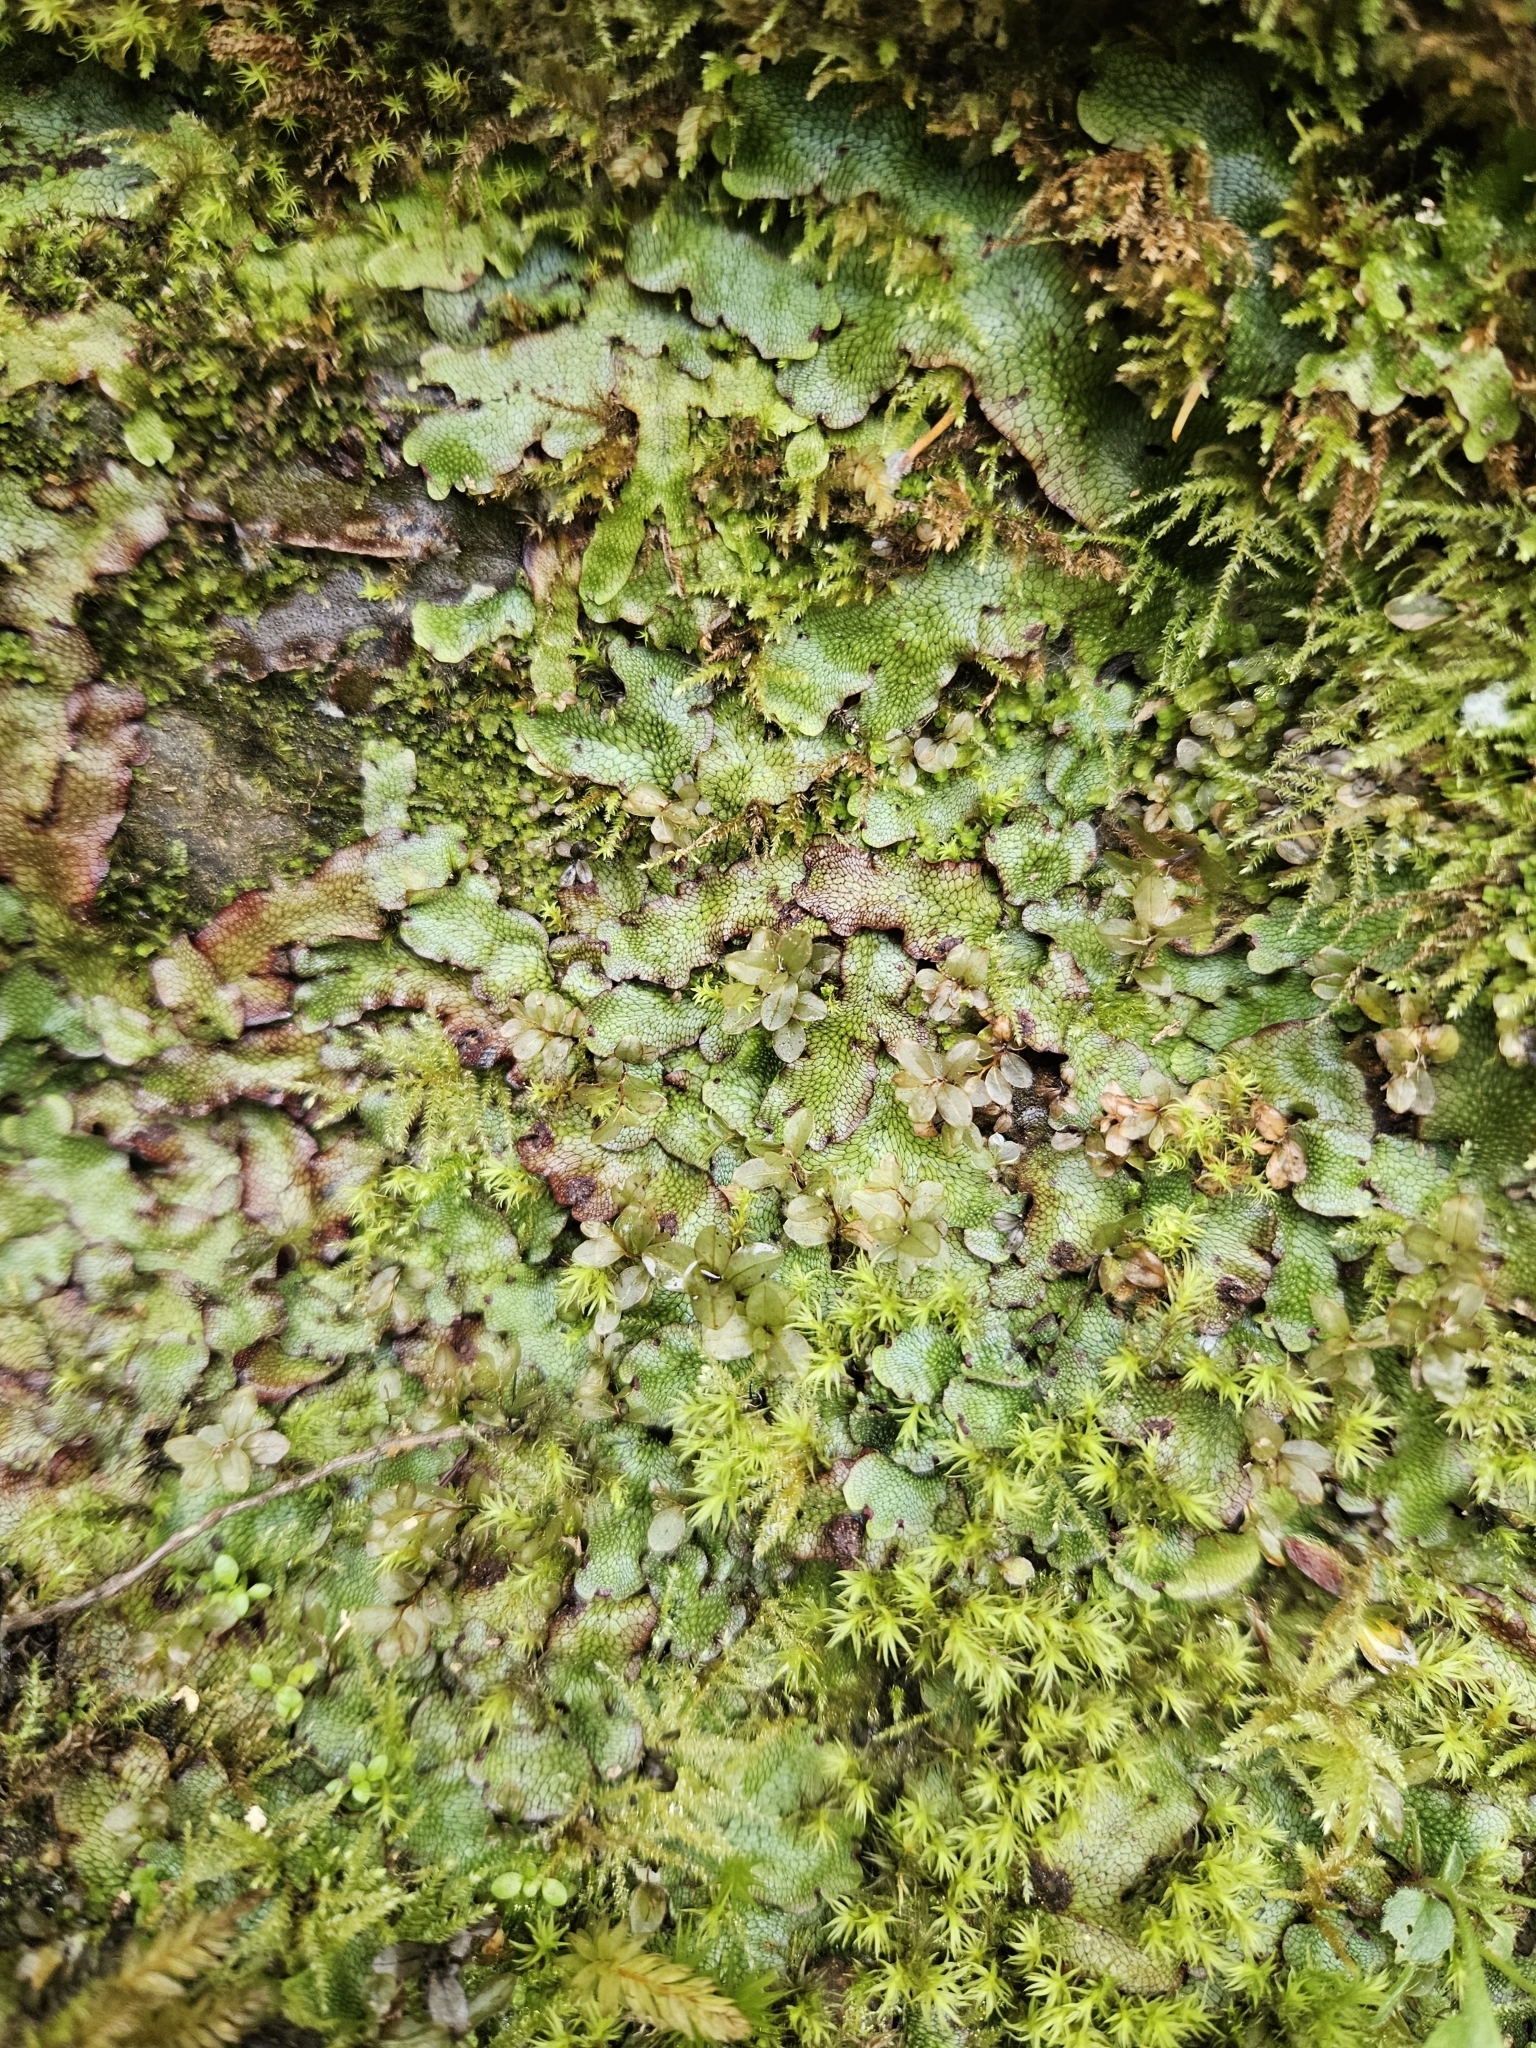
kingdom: Plantae
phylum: Marchantiophyta
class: Marchantiopsida
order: Marchantiales
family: Conocephalaceae
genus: Conocephalum
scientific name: Conocephalum salebrosum
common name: Cat-tongue liverwort
